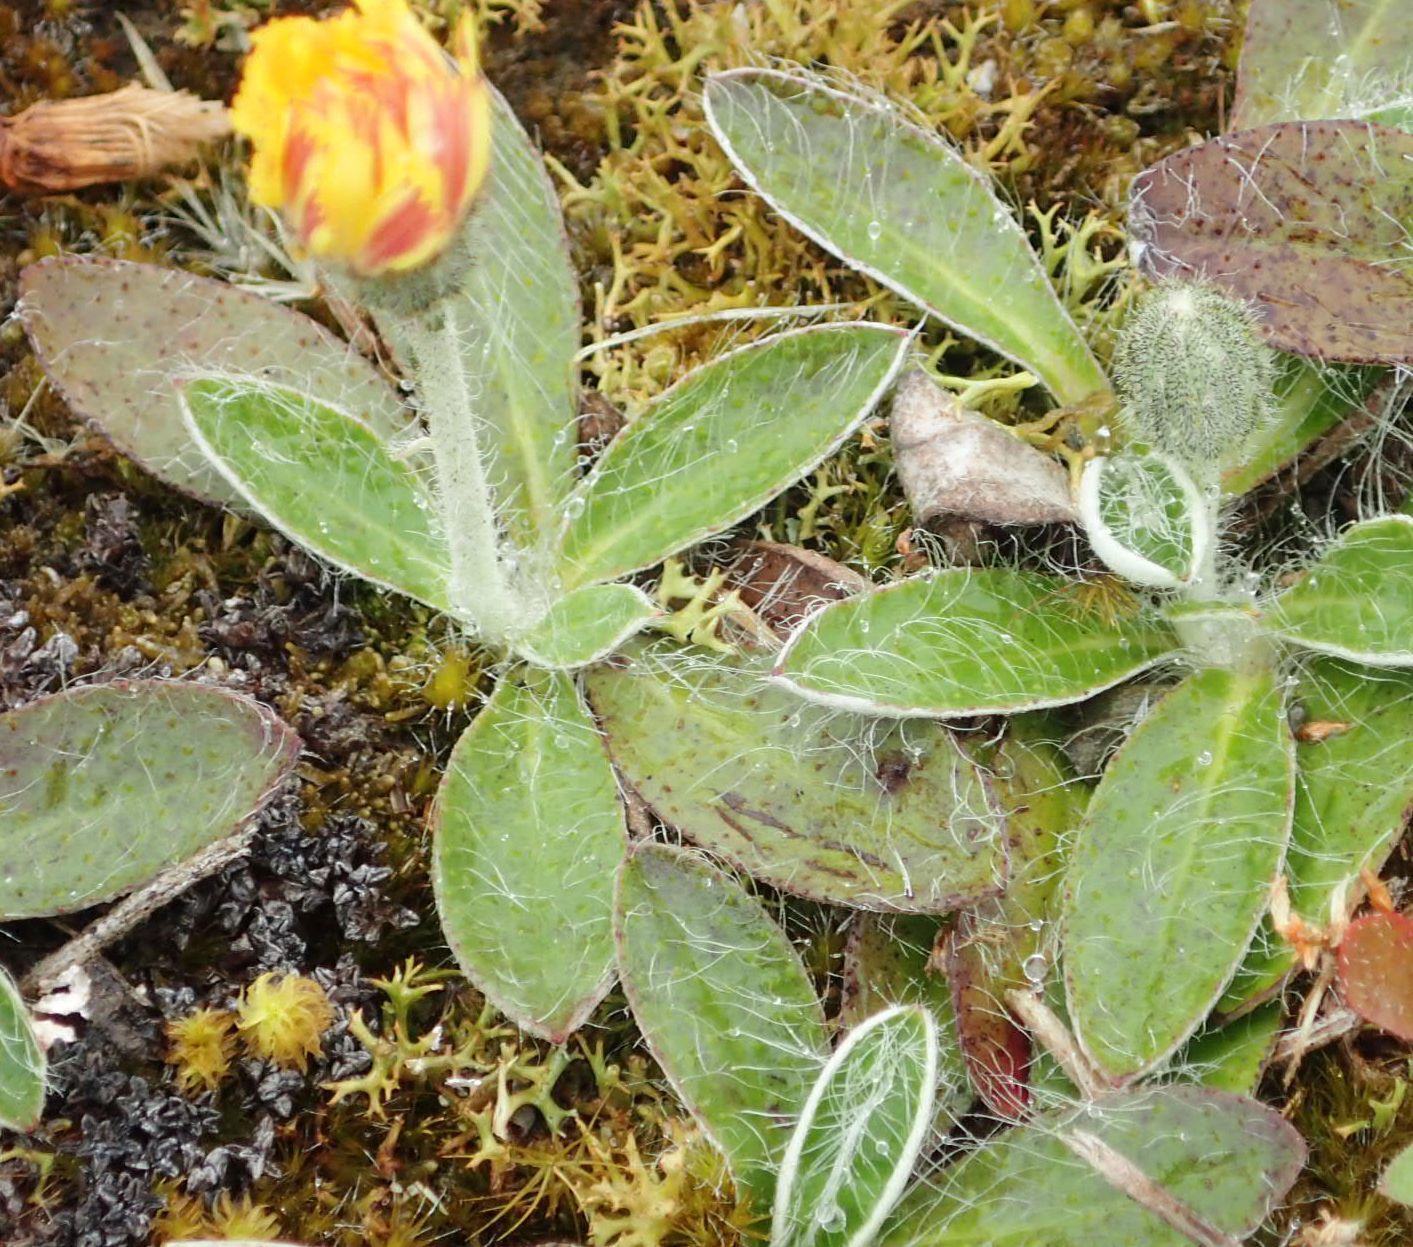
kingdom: Plantae
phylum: Tracheophyta
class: Magnoliopsida
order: Asterales
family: Asteraceae
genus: Pilosella
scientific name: Pilosella officinarum
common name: Mouse-ear hawkweed
